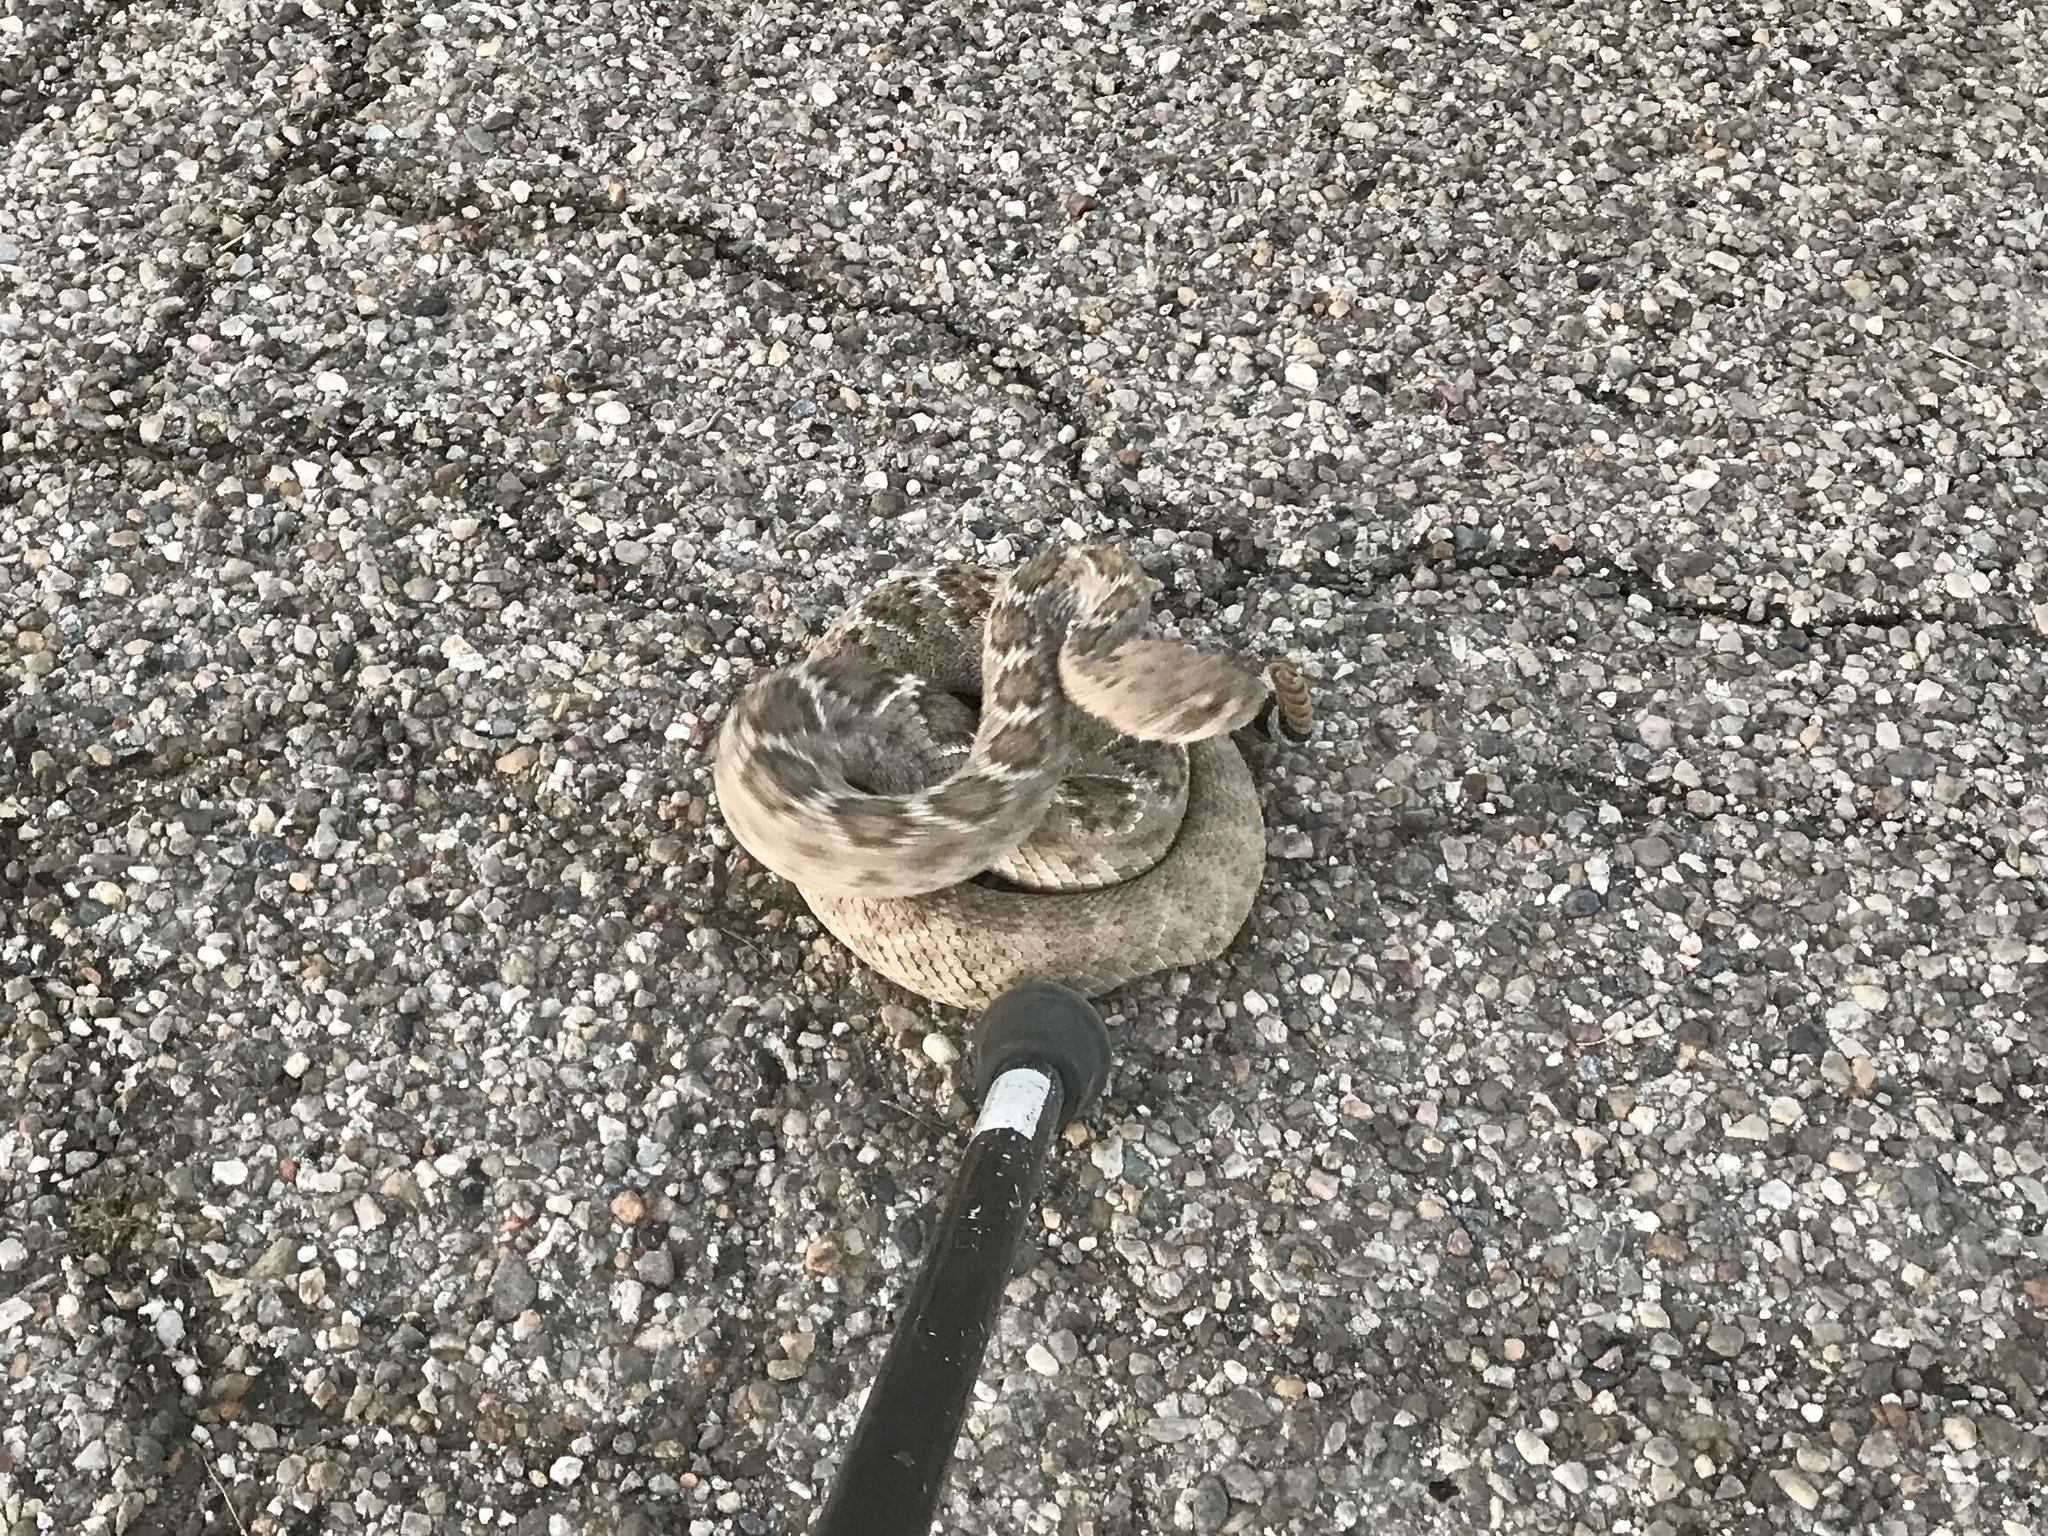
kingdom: Animalia
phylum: Chordata
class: Squamata
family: Viperidae
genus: Crotalus
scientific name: Crotalus atrox
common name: Western diamond-backed rattlesnake
